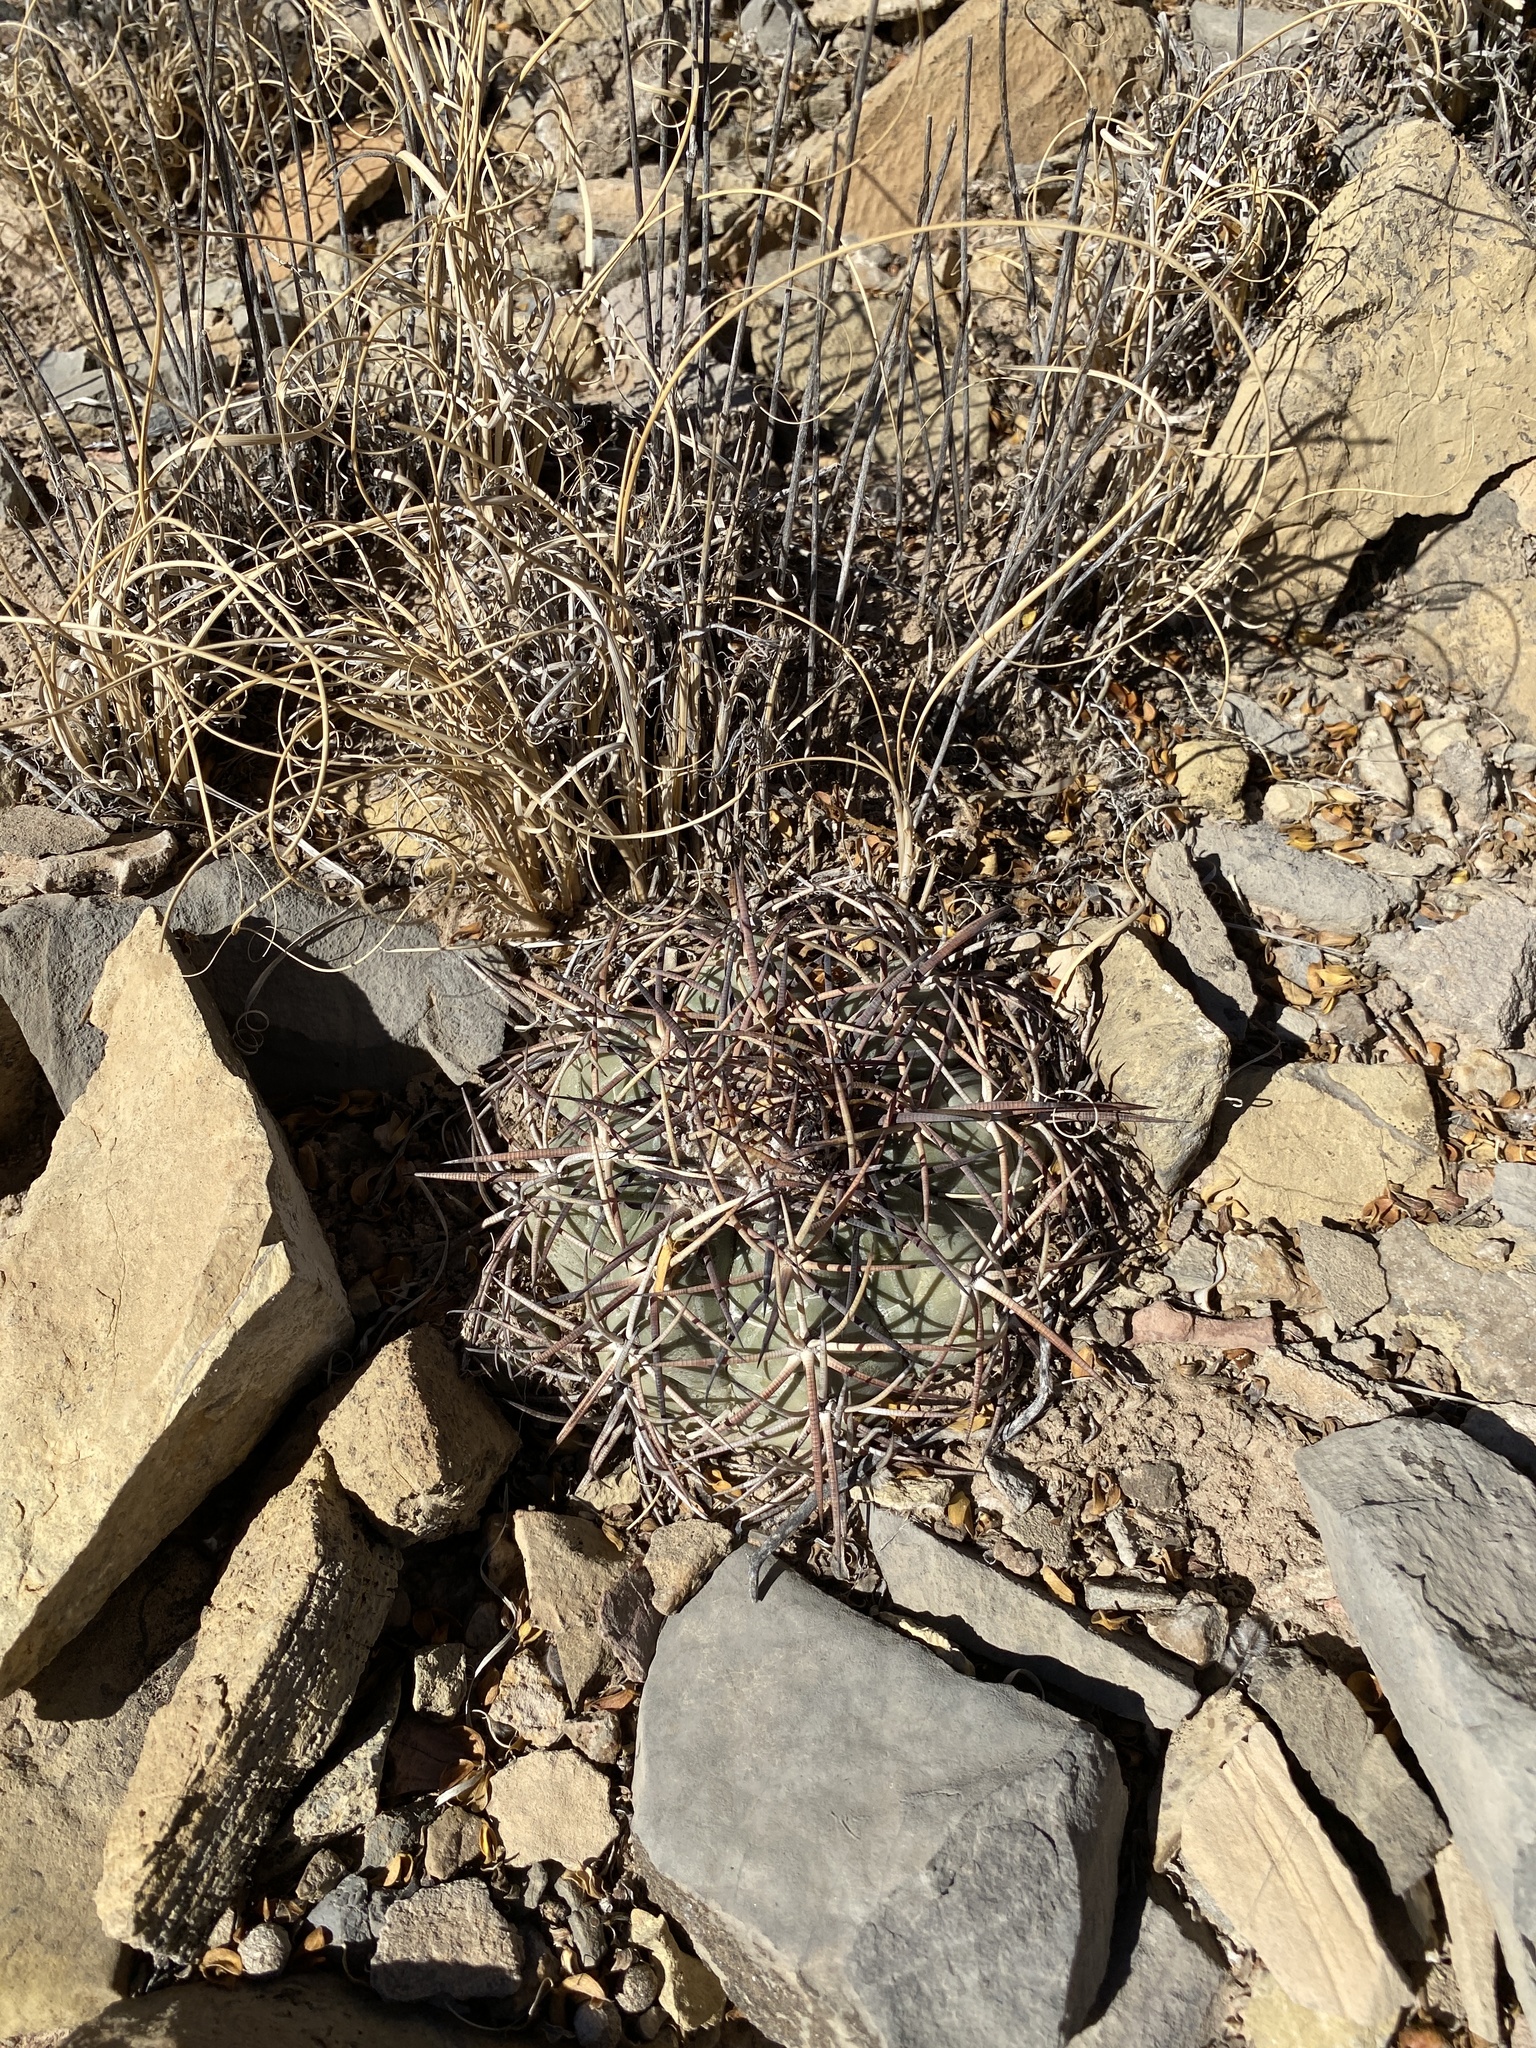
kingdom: Plantae
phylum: Tracheophyta
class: Magnoliopsida
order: Caryophyllales
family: Cactaceae
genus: Echinocactus
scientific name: Echinocactus horizonthalonius
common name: Devilshead
